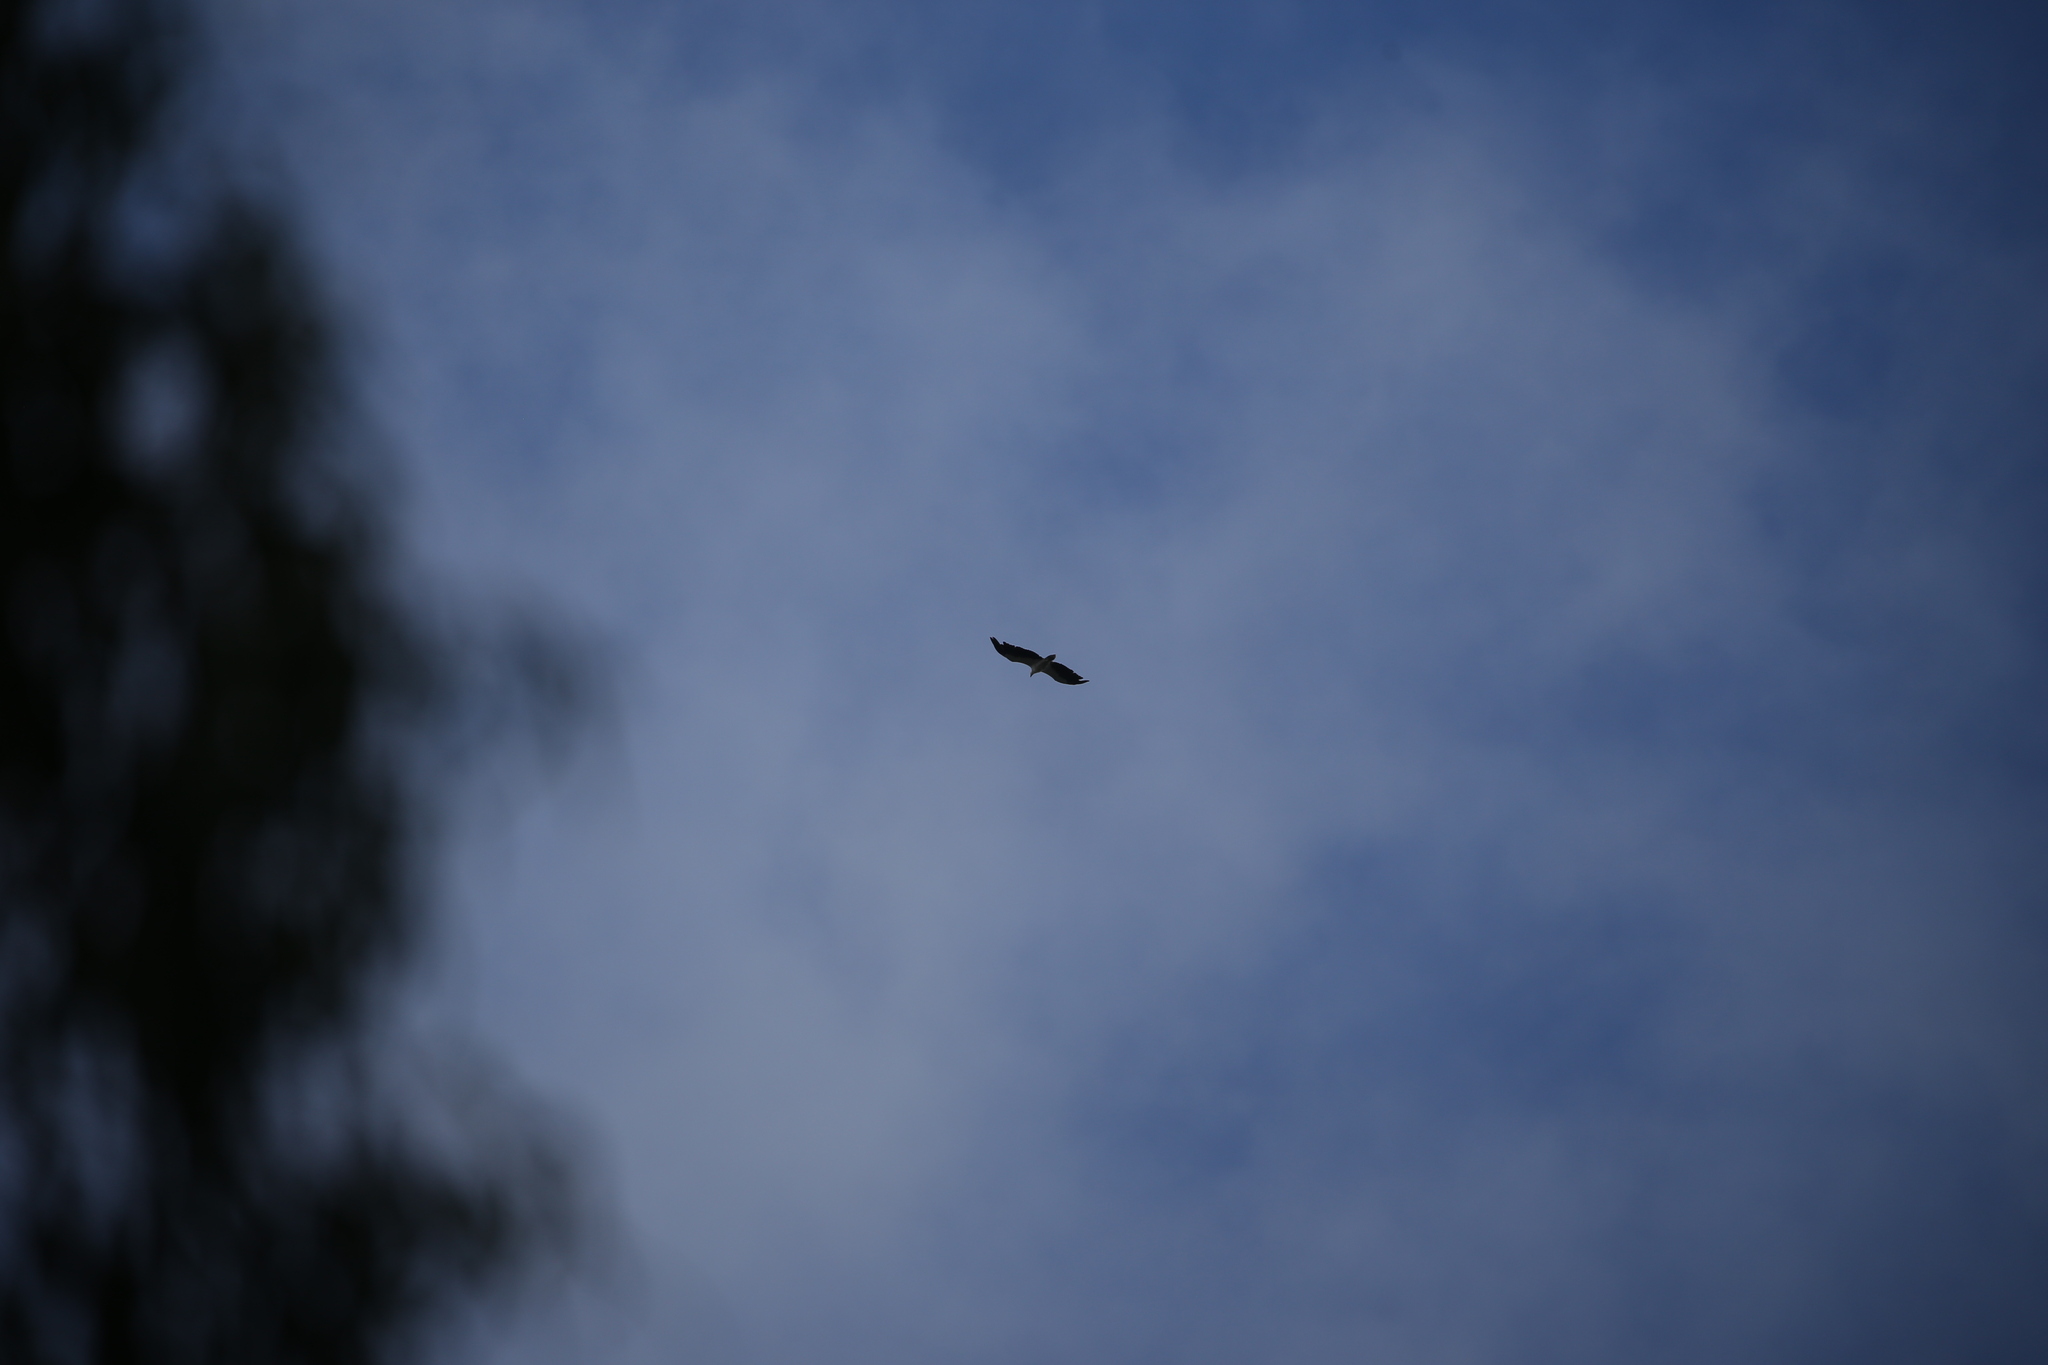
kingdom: Animalia
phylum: Chordata
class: Aves
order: Accipitriformes
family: Accipitridae
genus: Haliaeetus
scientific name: Haliaeetus leucogaster
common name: White-bellied sea eagle
